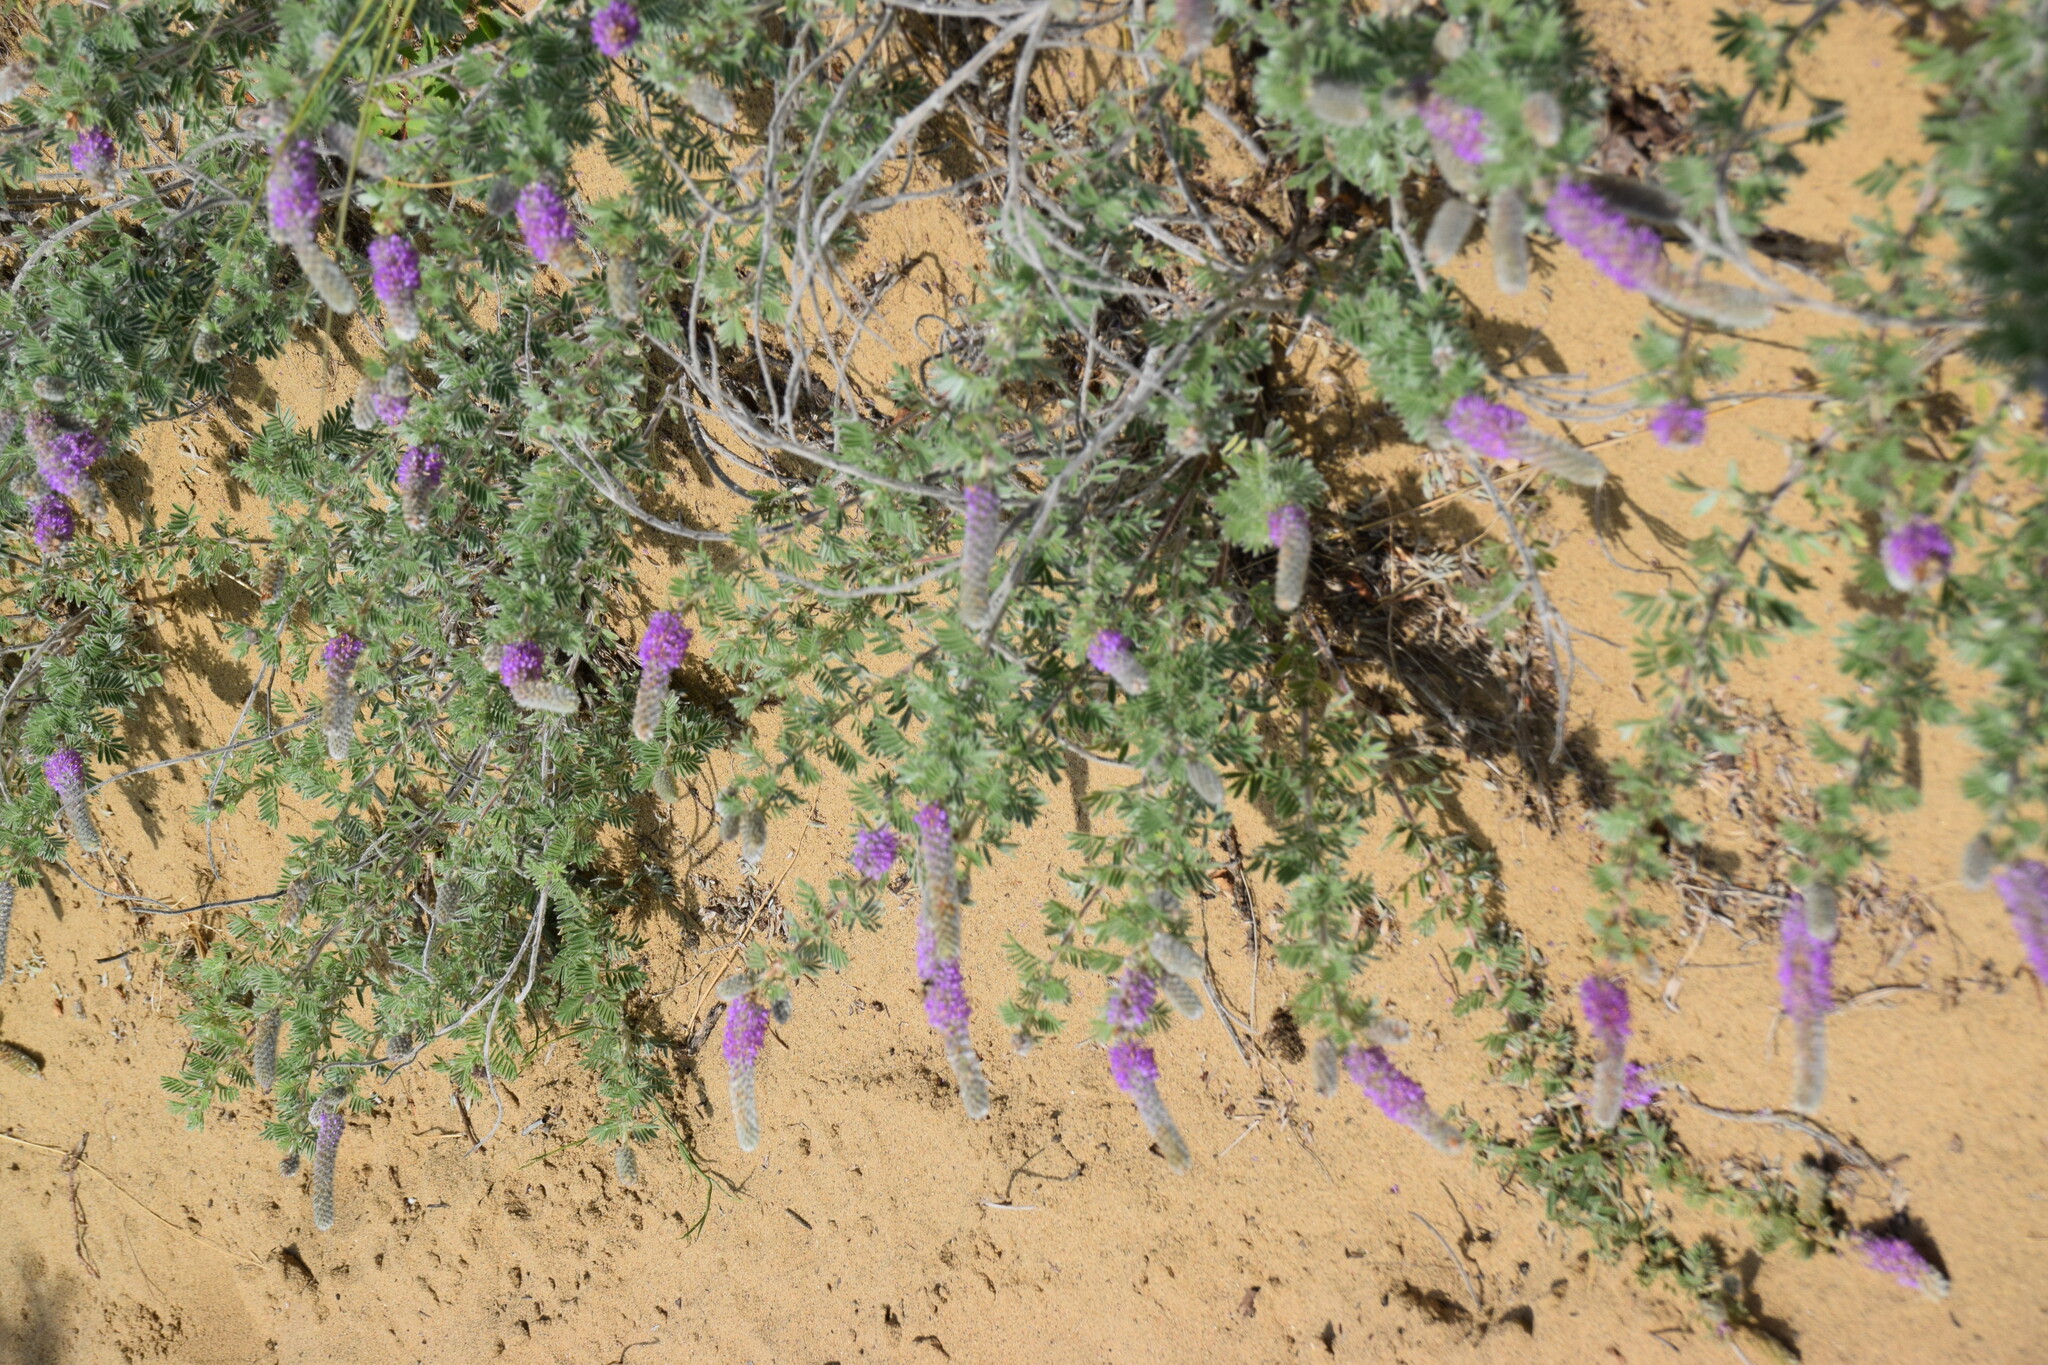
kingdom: Plantae
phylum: Tracheophyta
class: Magnoliopsida
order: Fabales
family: Fabaceae
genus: Dalea
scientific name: Dalea villosa
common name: Silky prairie-clover
